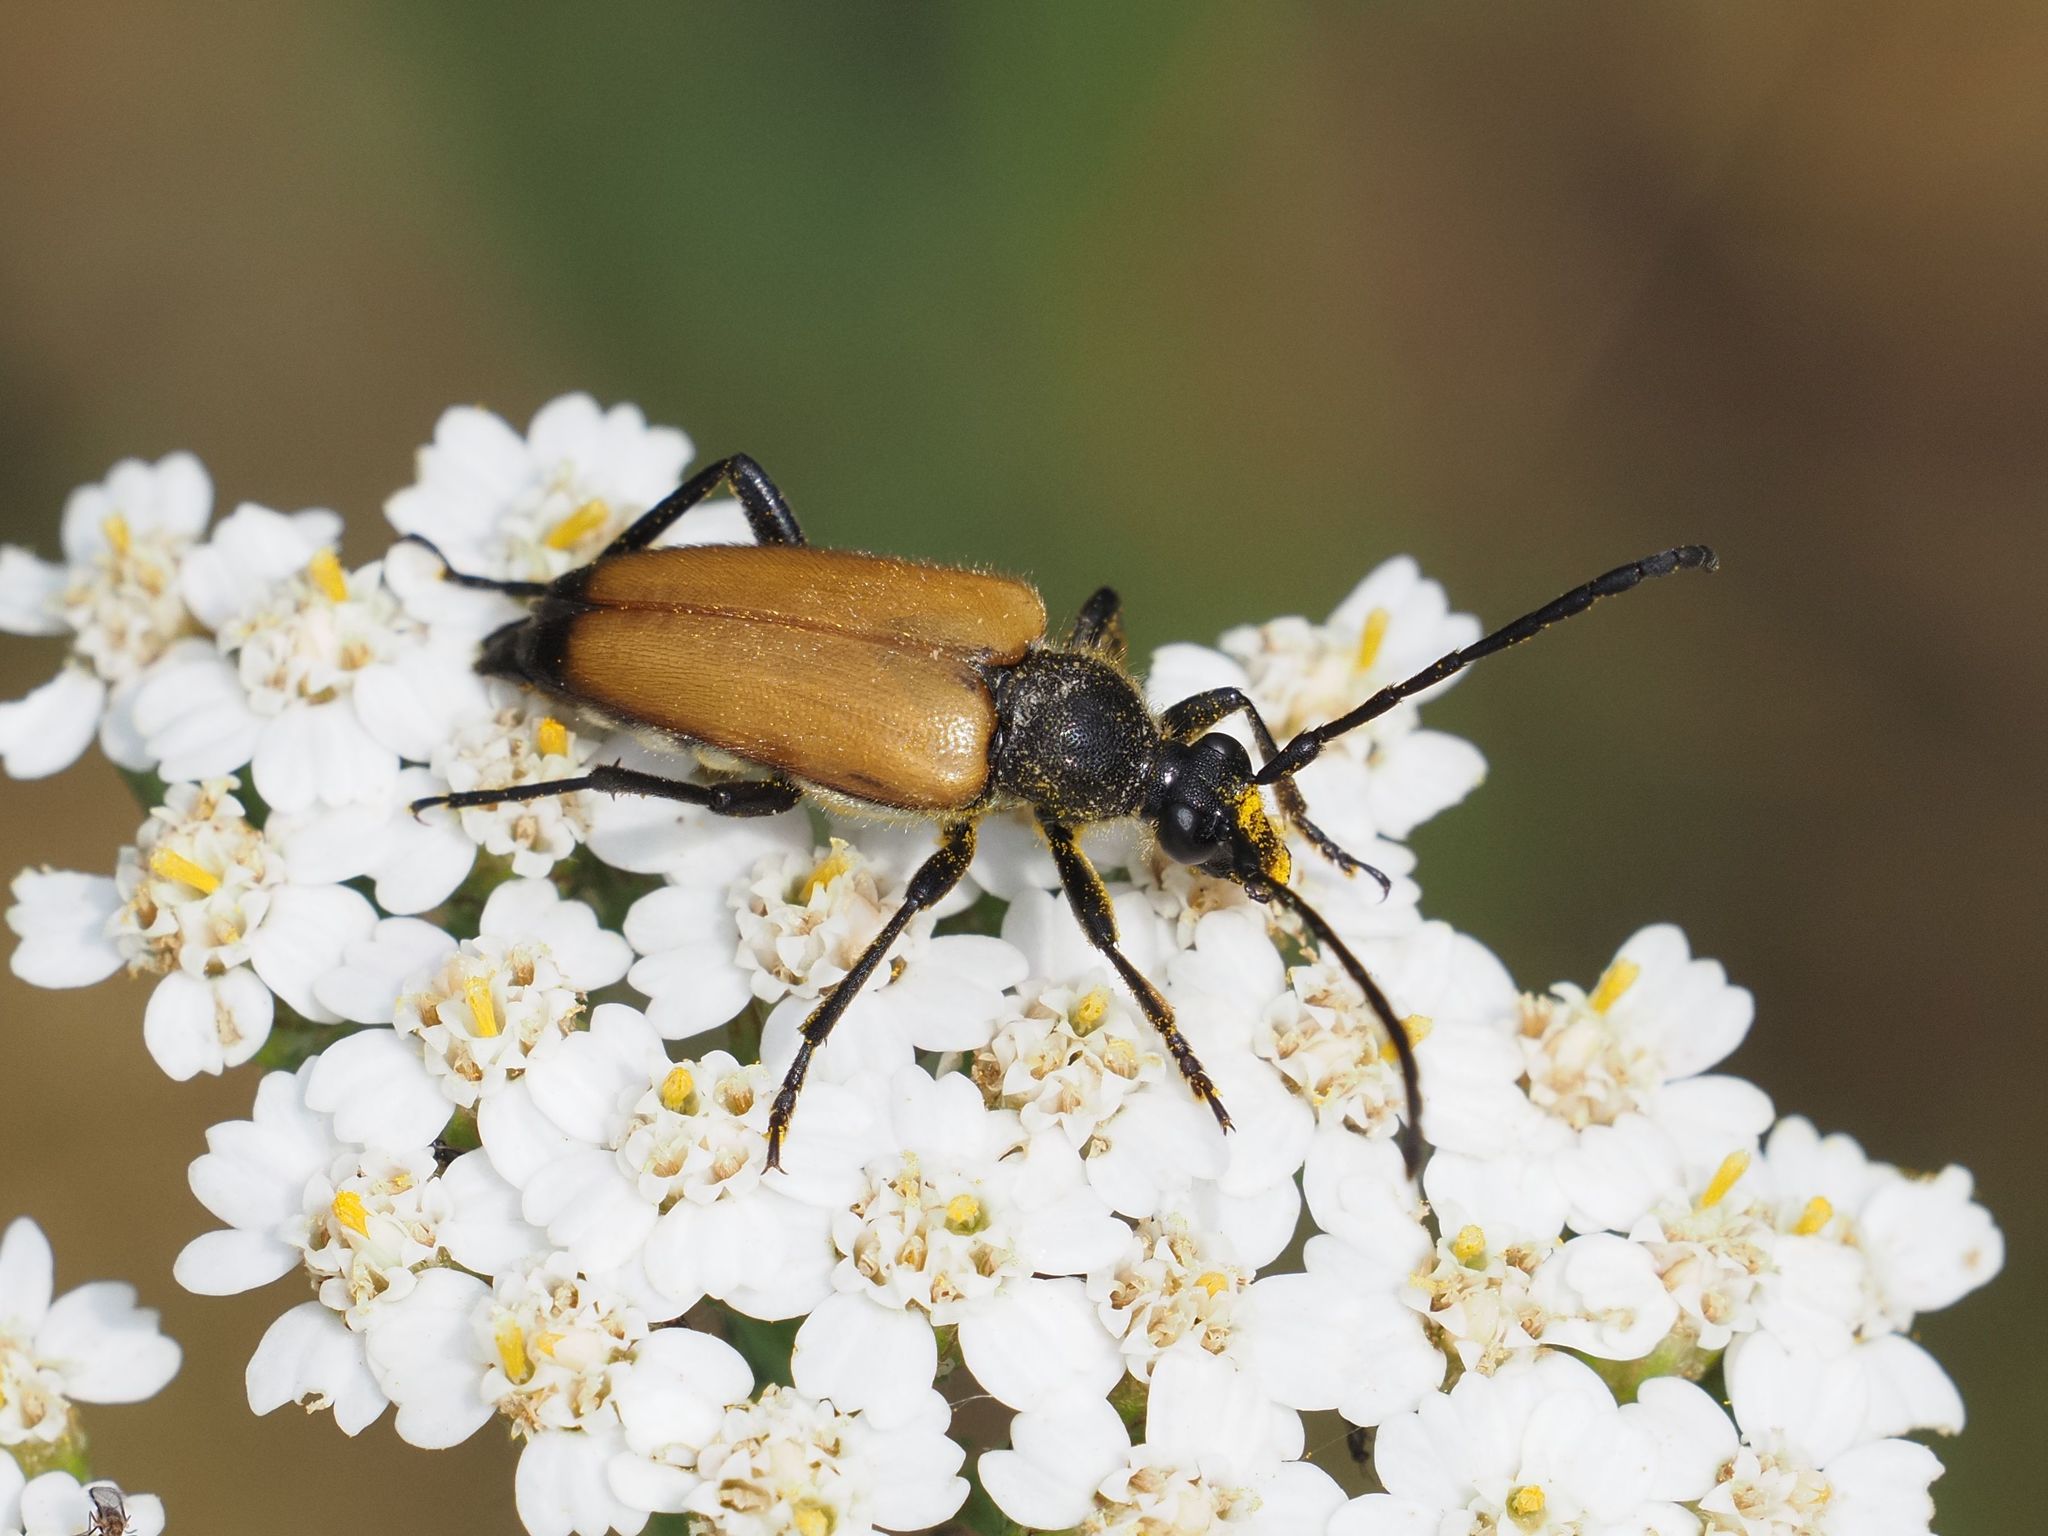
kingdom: Animalia
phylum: Arthropoda
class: Insecta
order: Coleoptera
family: Cerambycidae
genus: Paracorymbia
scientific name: Paracorymbia fulva
